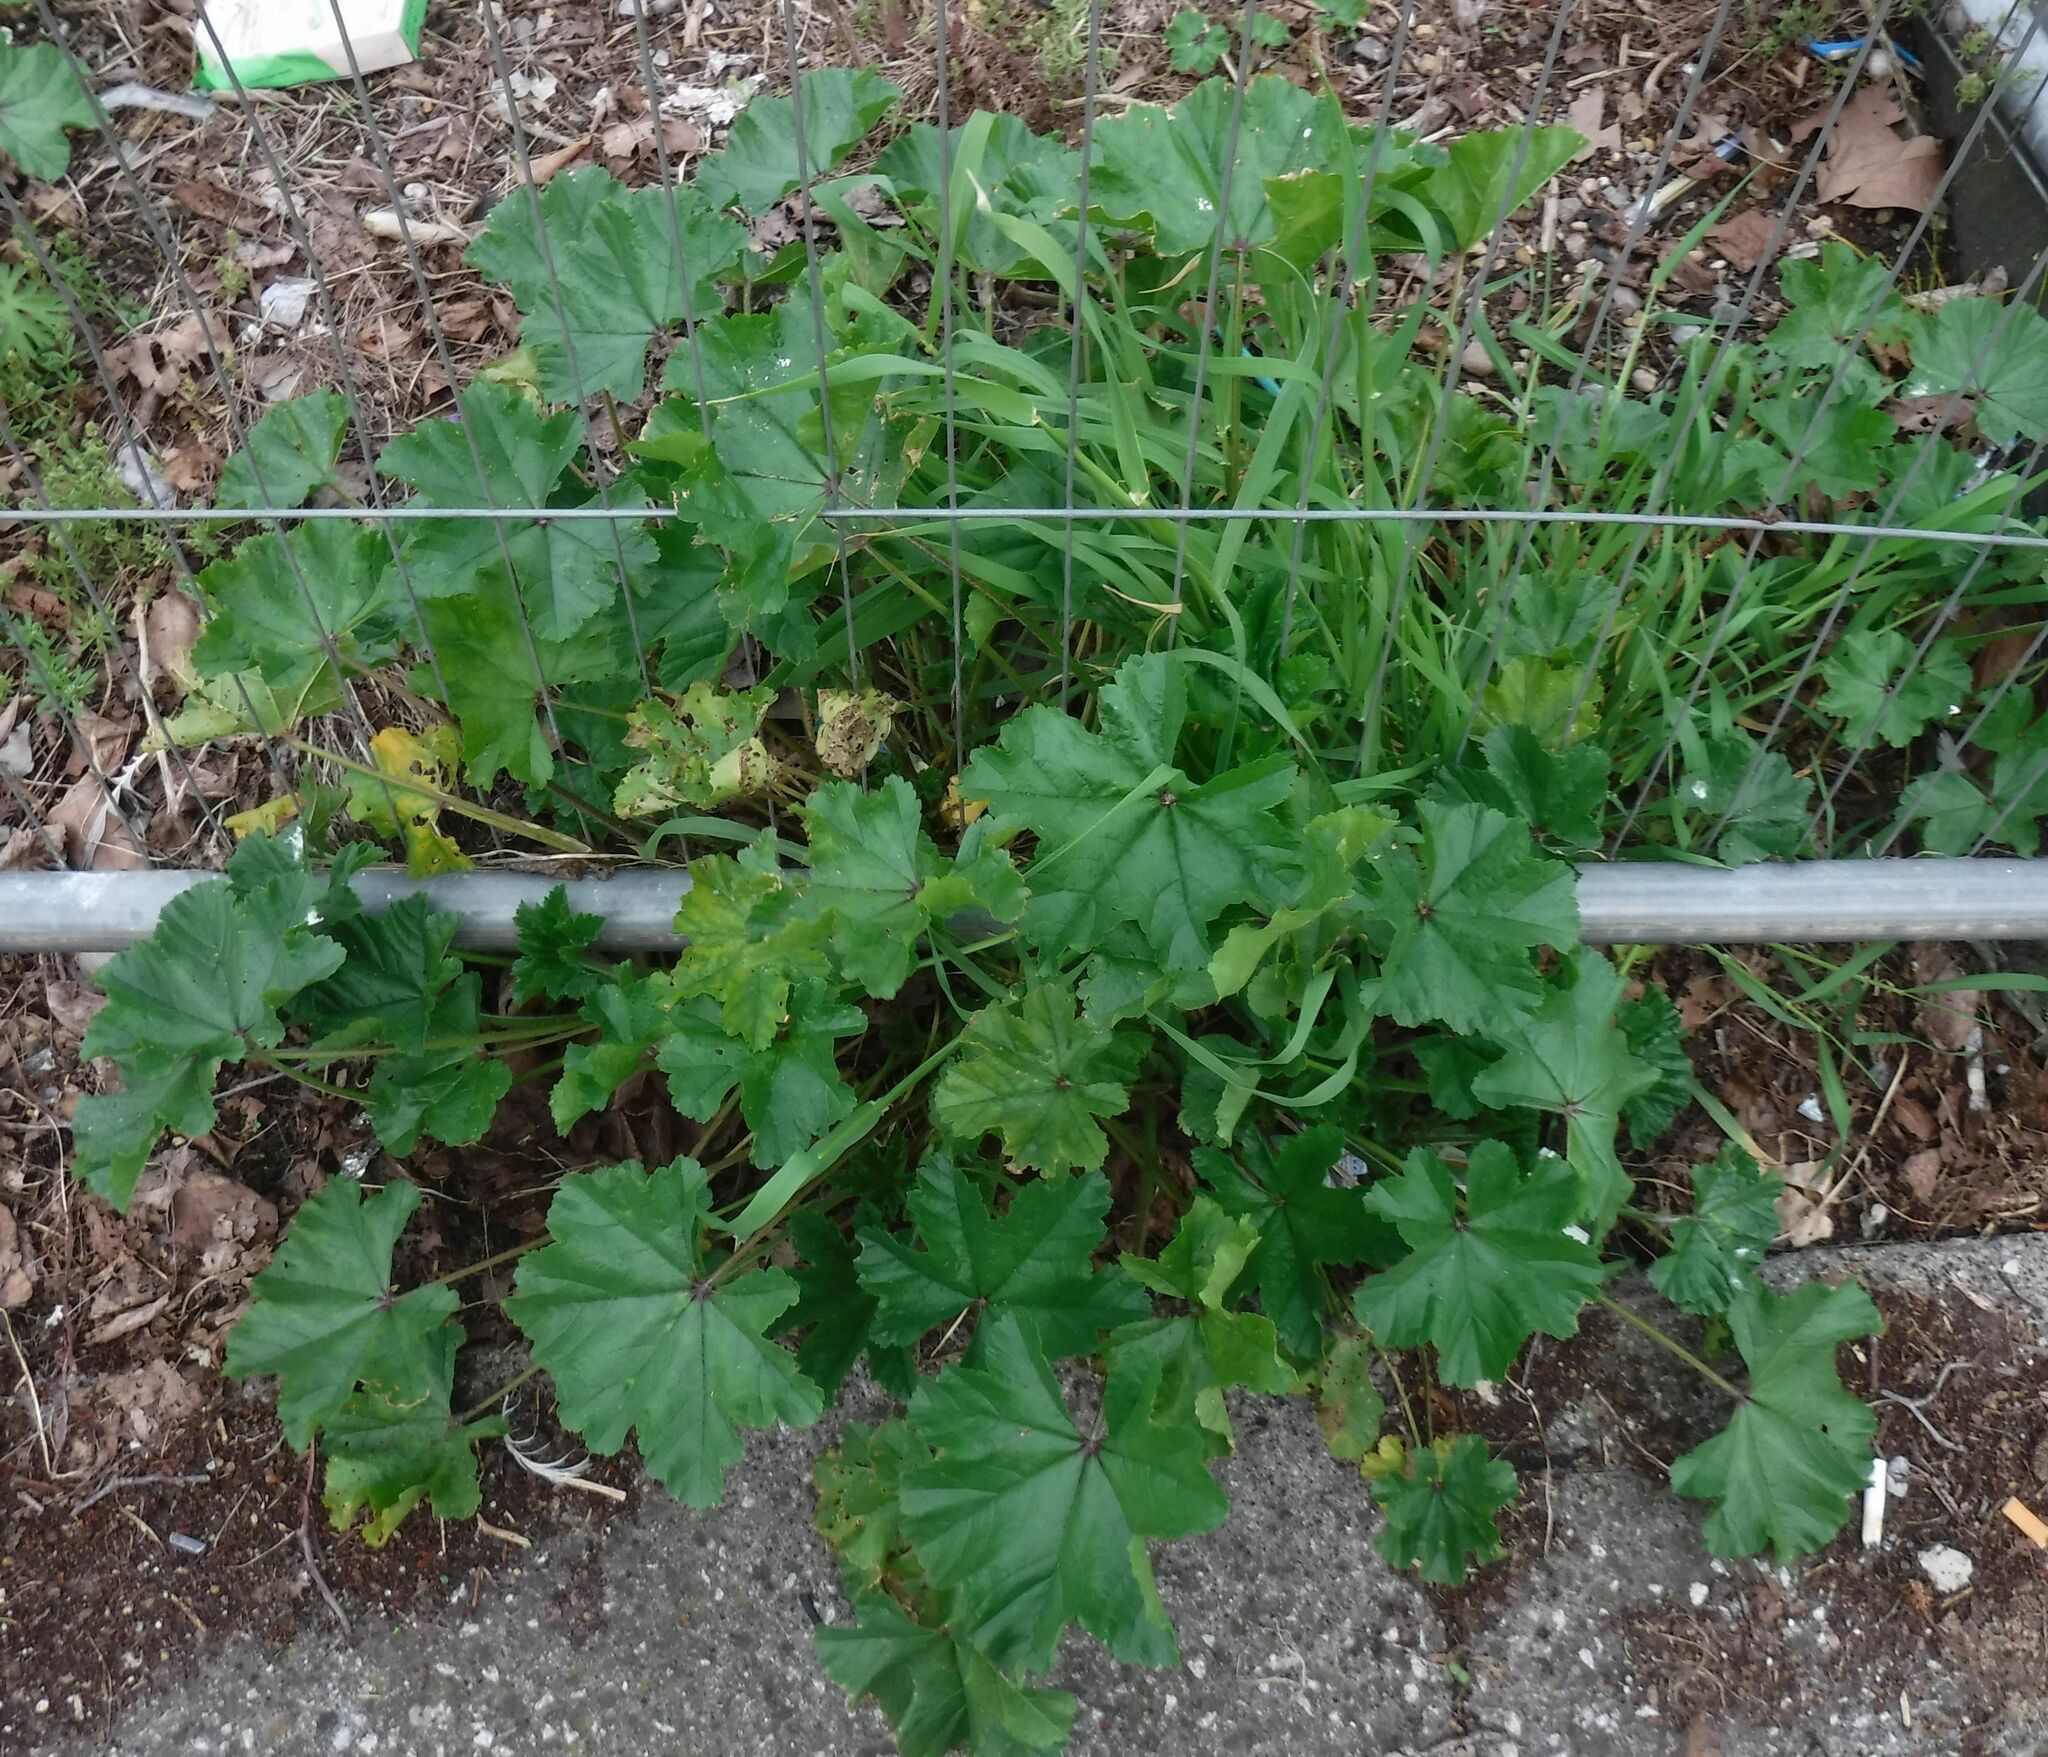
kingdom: Plantae
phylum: Tracheophyta
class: Magnoliopsida
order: Malvales
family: Malvaceae
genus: Malva
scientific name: Malva sylvestris
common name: Common mallow
